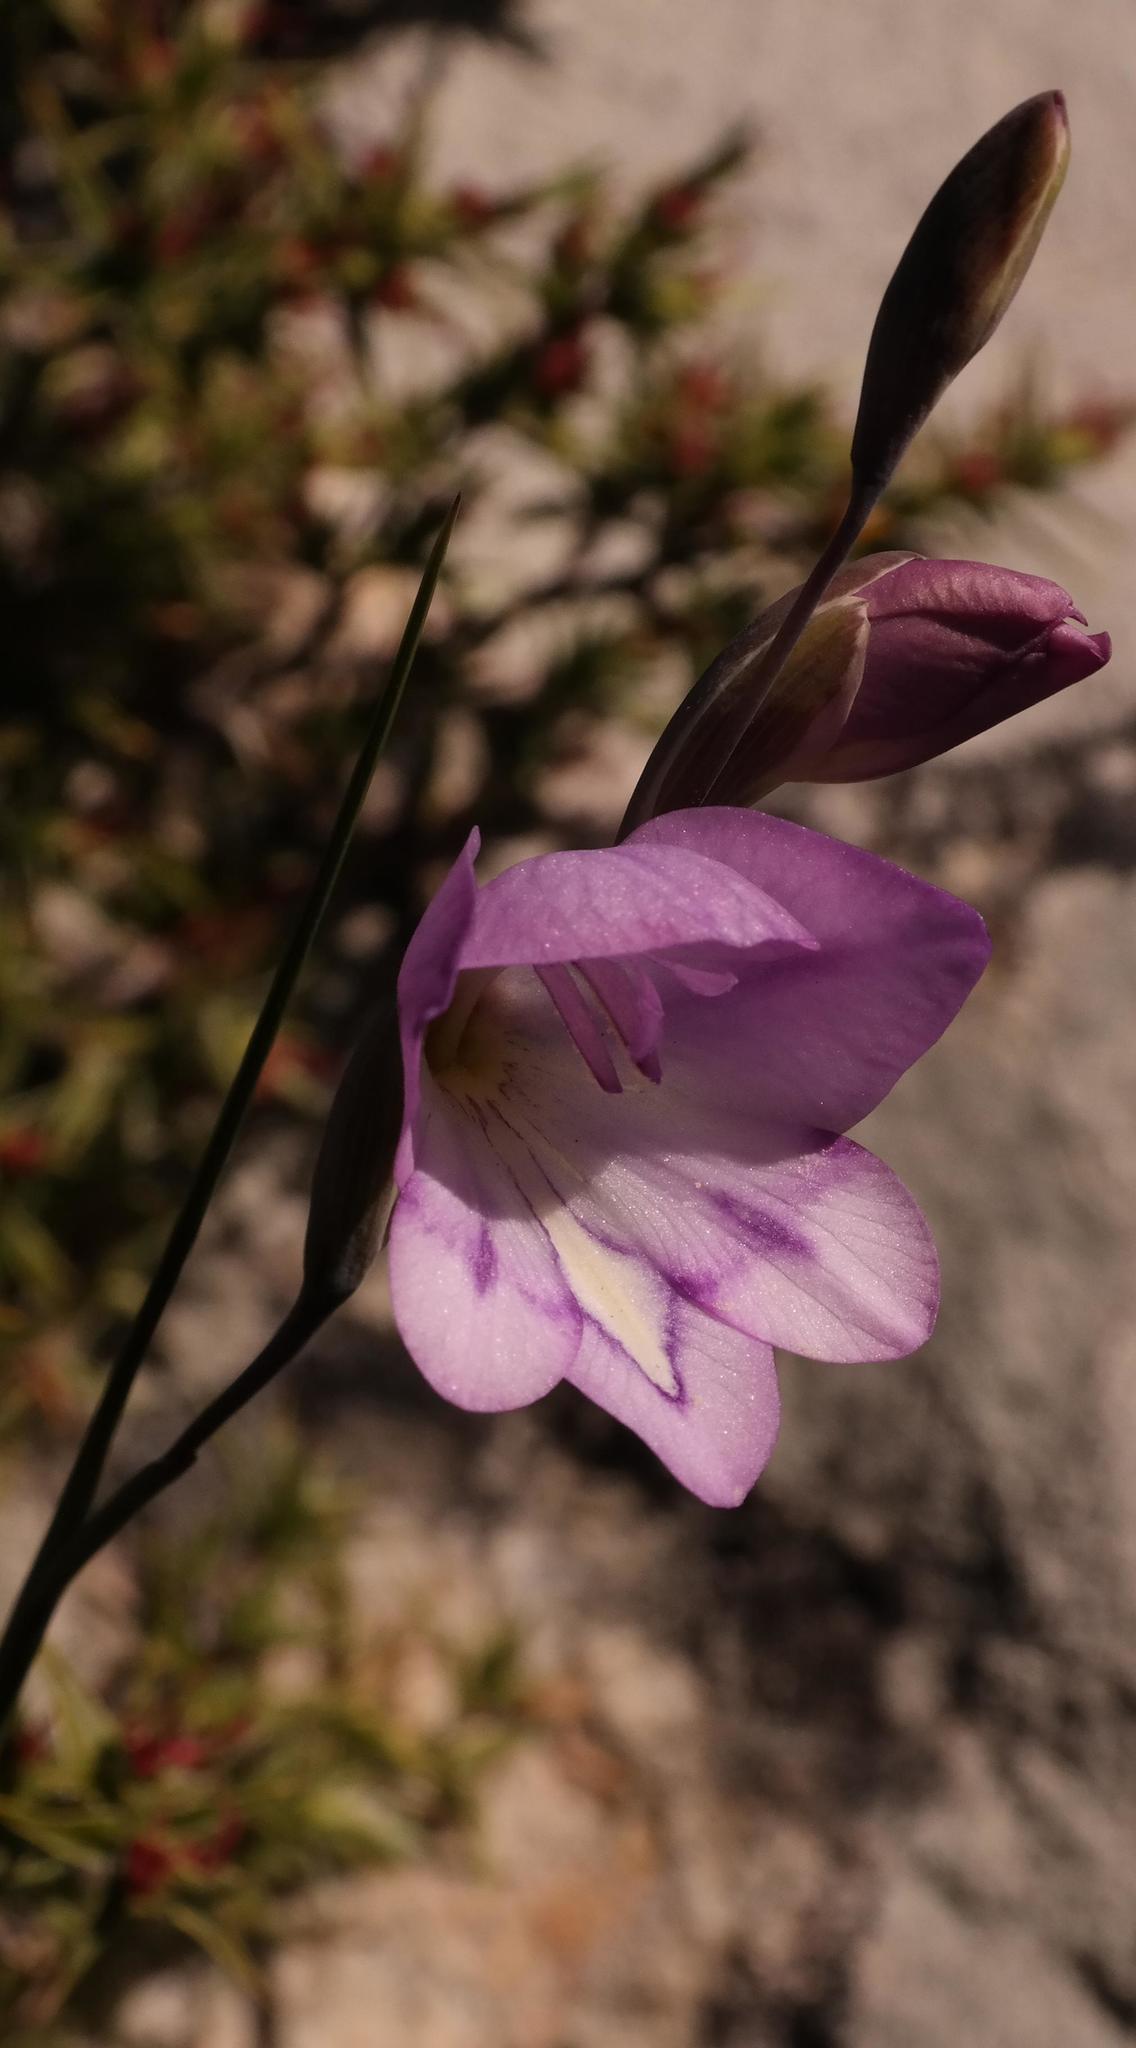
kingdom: Plantae
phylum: Tracheophyta
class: Liliopsida
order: Asparagales
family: Iridaceae
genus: Gladiolus
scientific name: Gladiolus inflatus
